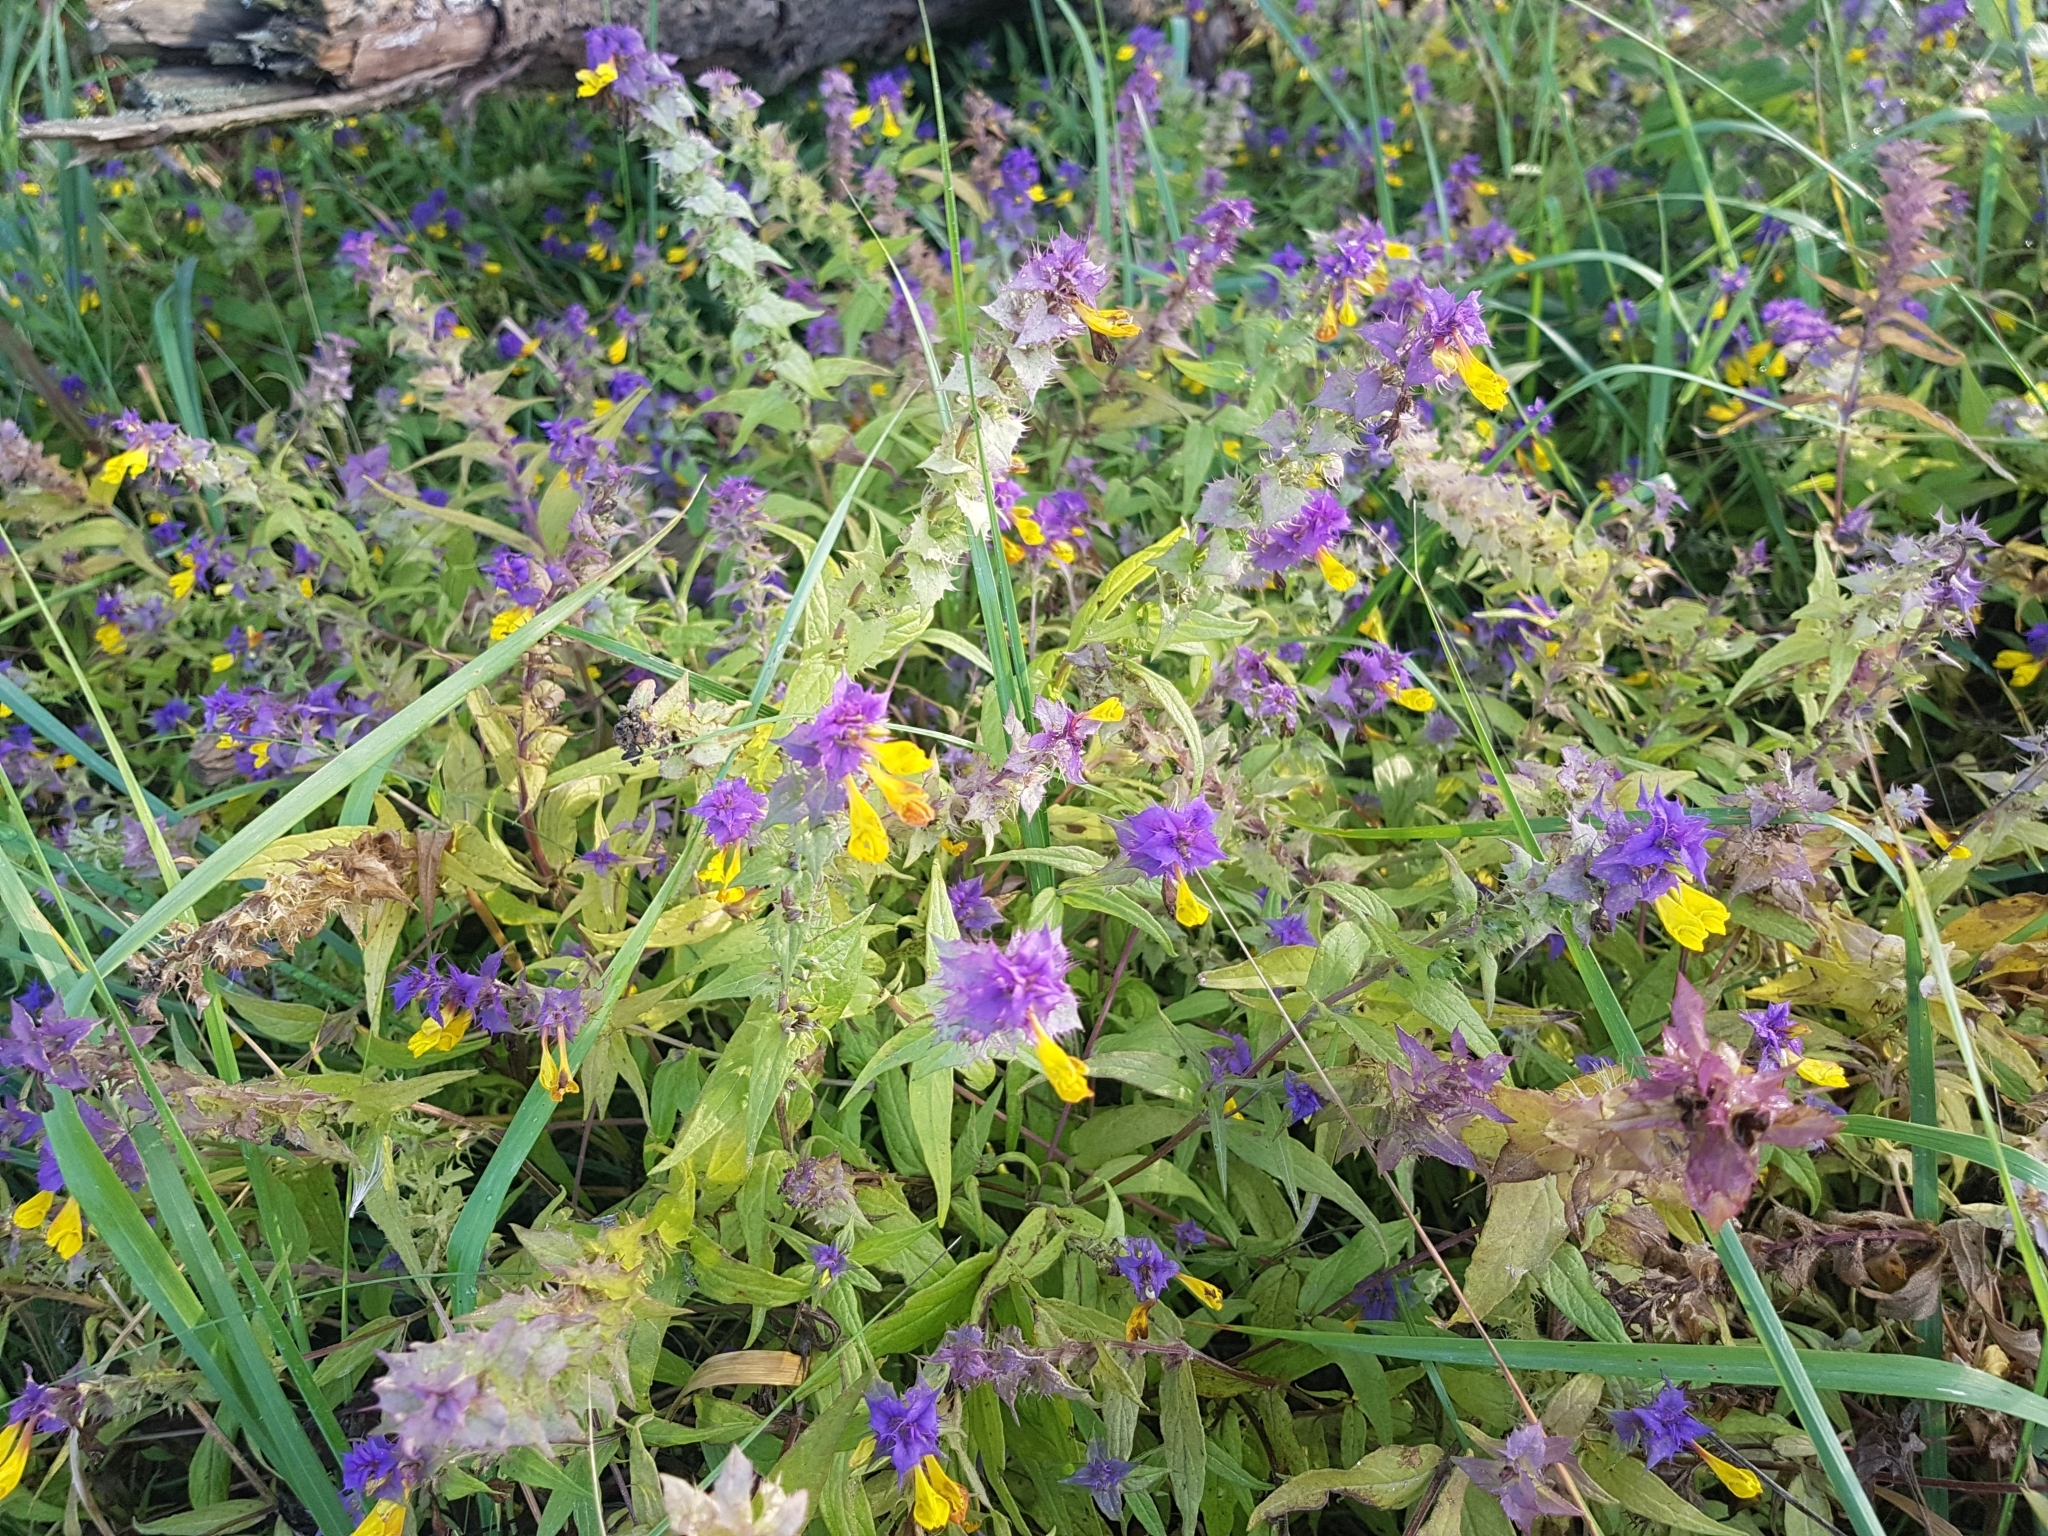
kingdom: Plantae
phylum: Tracheophyta
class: Magnoliopsida
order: Lamiales
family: Orobanchaceae
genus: Melampyrum
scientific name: Melampyrum nemorosum
